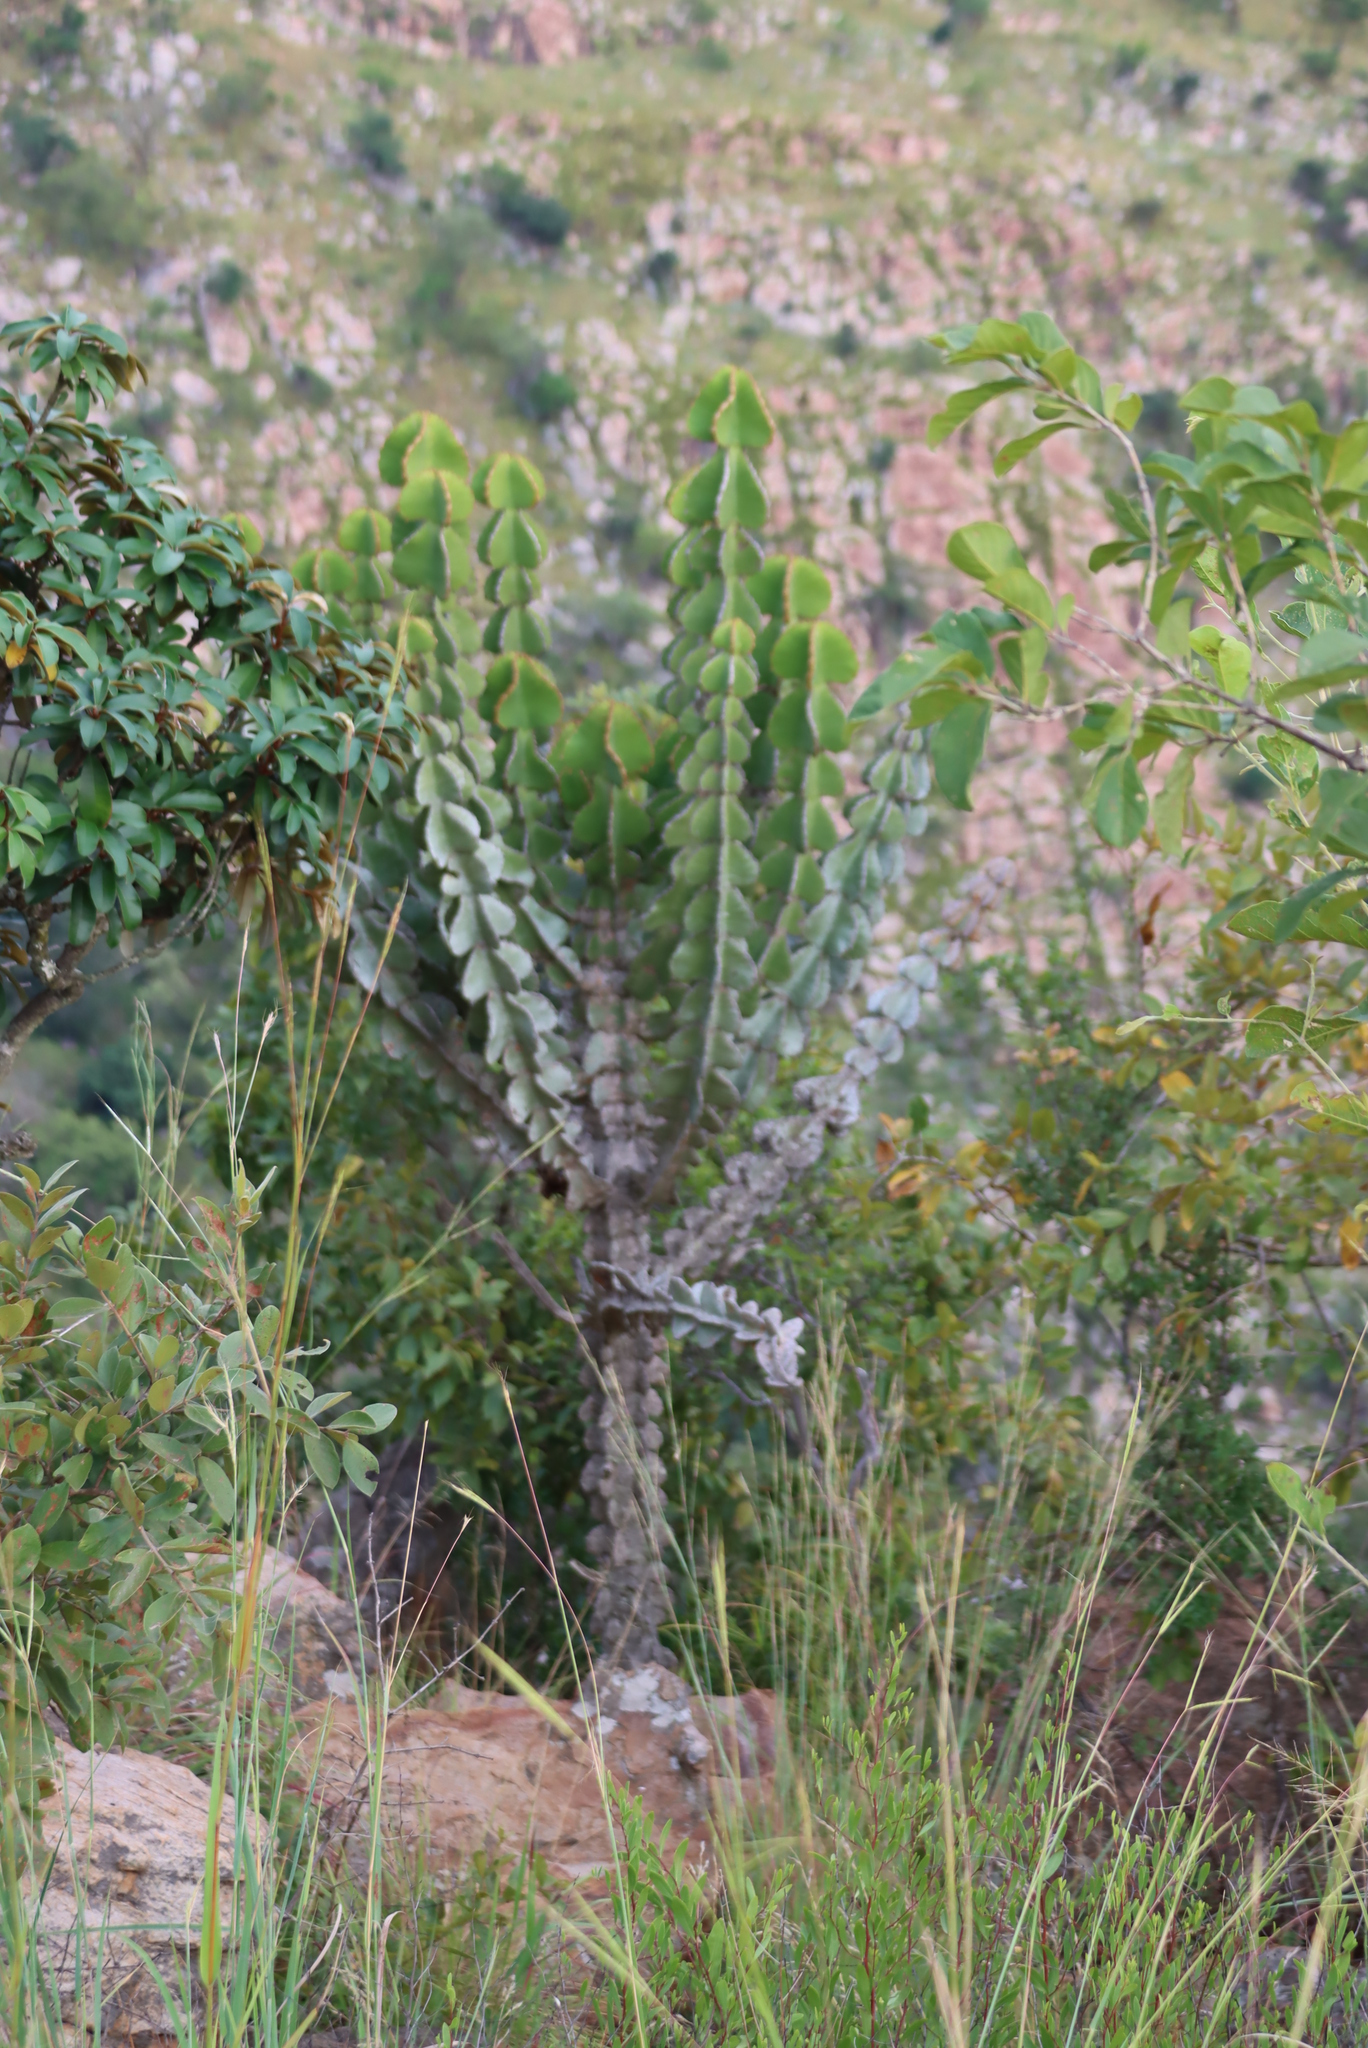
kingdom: Plantae
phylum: Tracheophyta
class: Magnoliopsida
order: Malpighiales
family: Euphorbiaceae
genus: Euphorbia
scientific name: Euphorbia cooperi
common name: Candelabra tree
